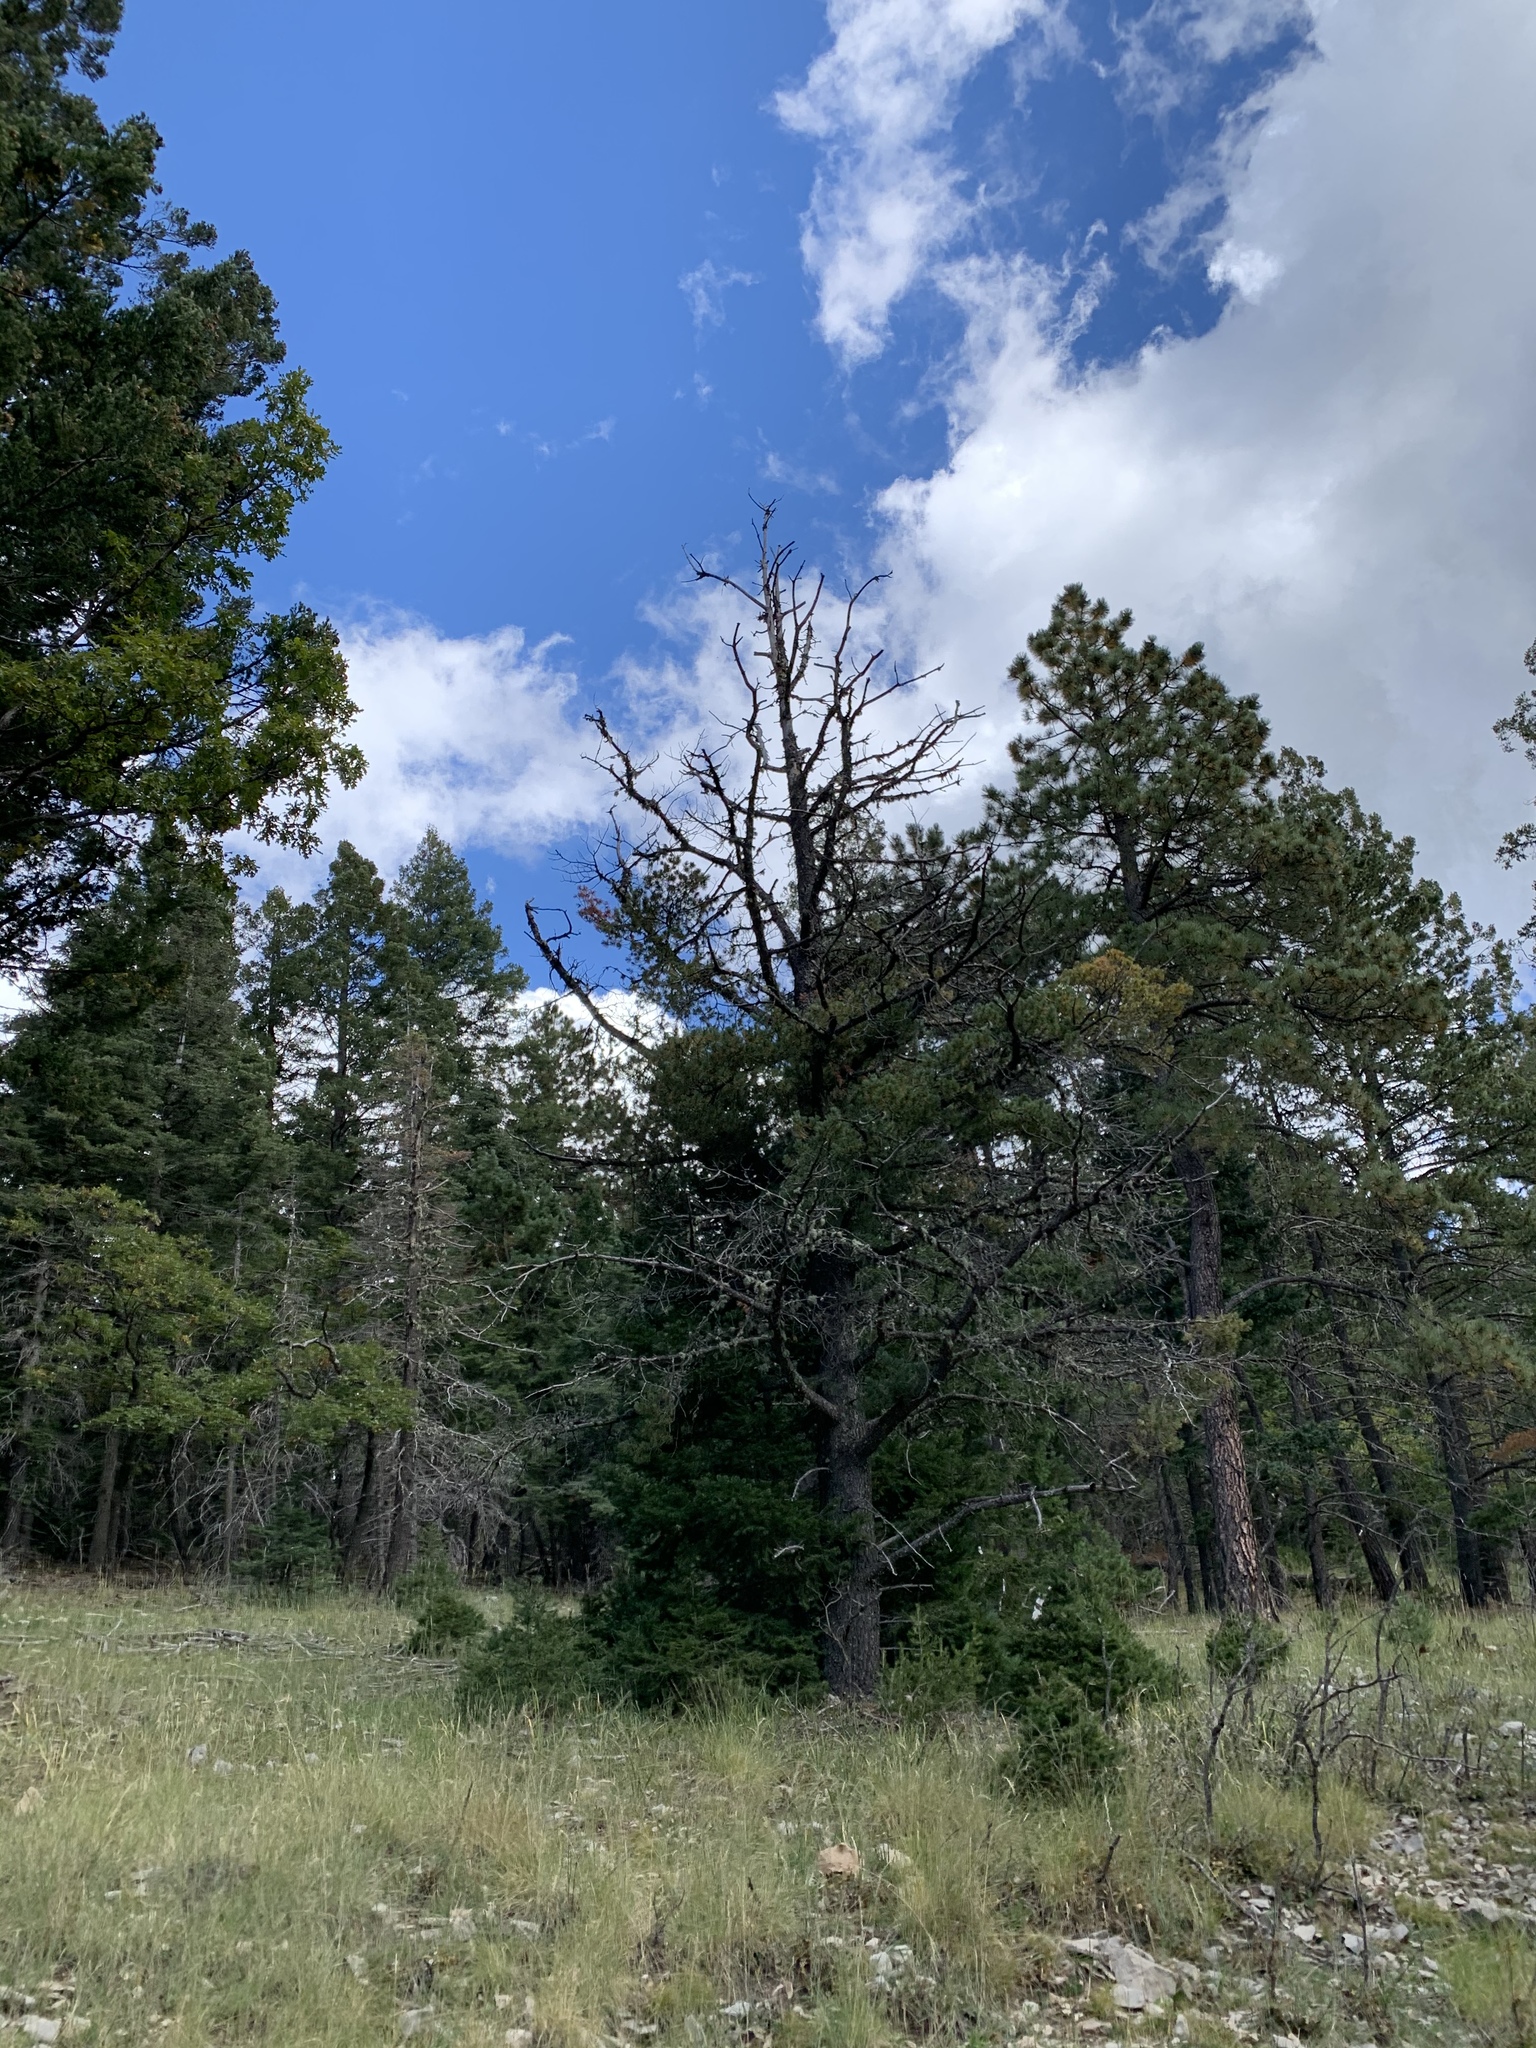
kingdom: Plantae
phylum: Tracheophyta
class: Pinopsida
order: Pinales
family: Pinaceae
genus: Pinus
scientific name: Pinus strobiformis
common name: Southwestern white pine
